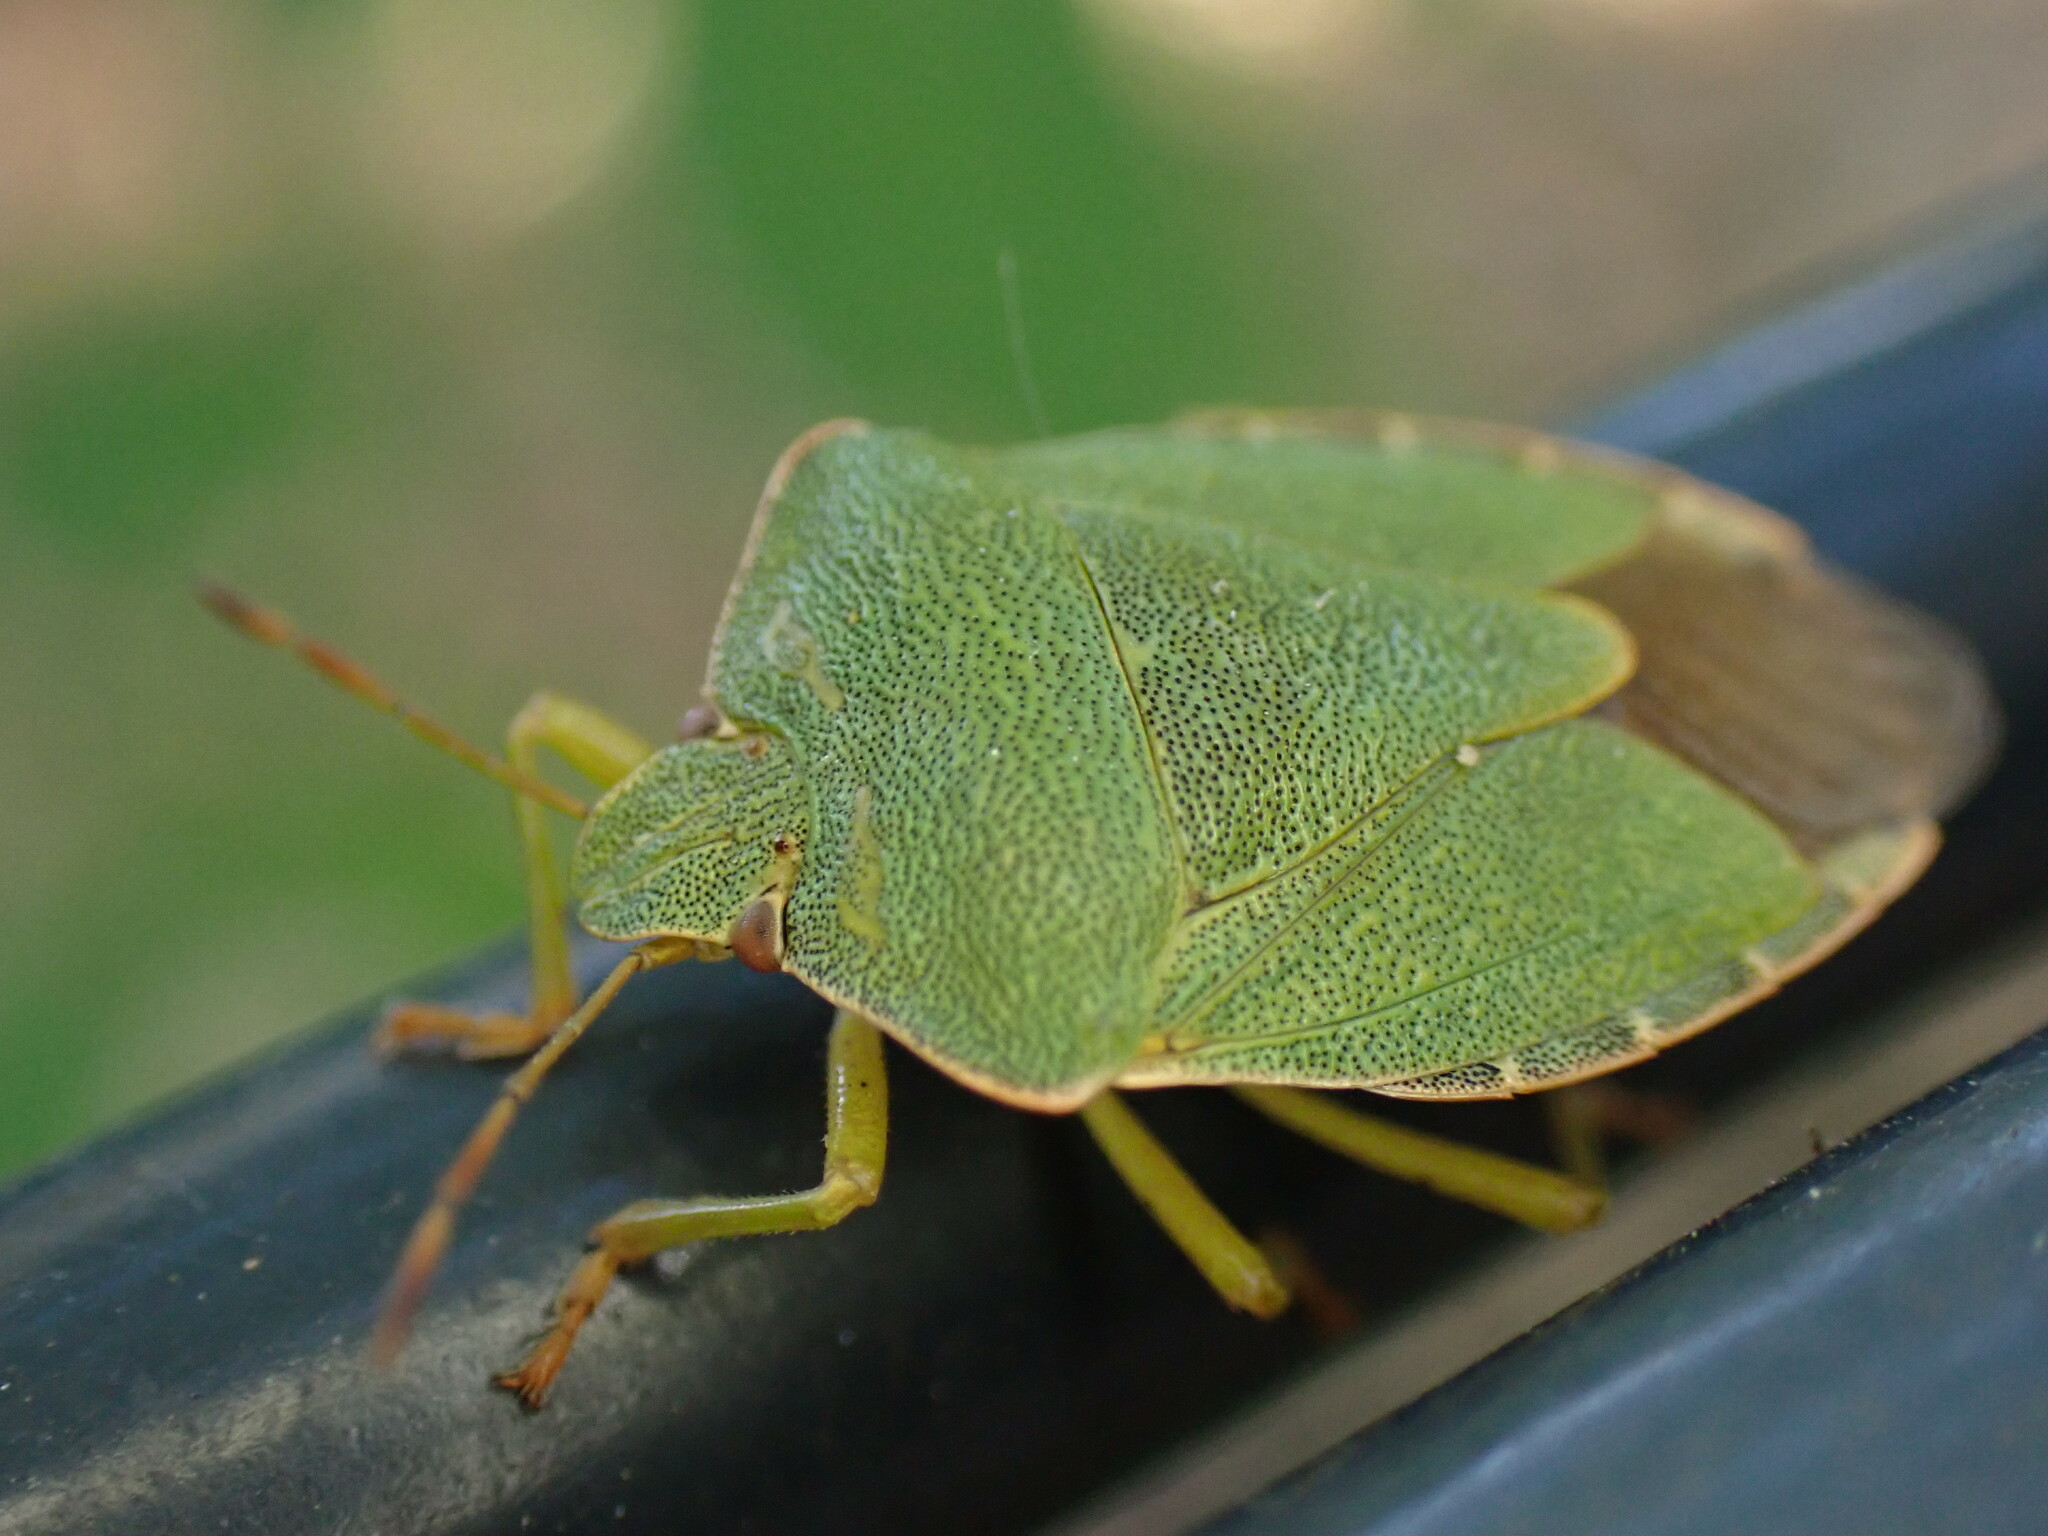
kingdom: Animalia
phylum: Arthropoda
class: Insecta
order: Hemiptera
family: Pentatomidae
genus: Palomena
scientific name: Palomena prasina
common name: Green shieldbug
